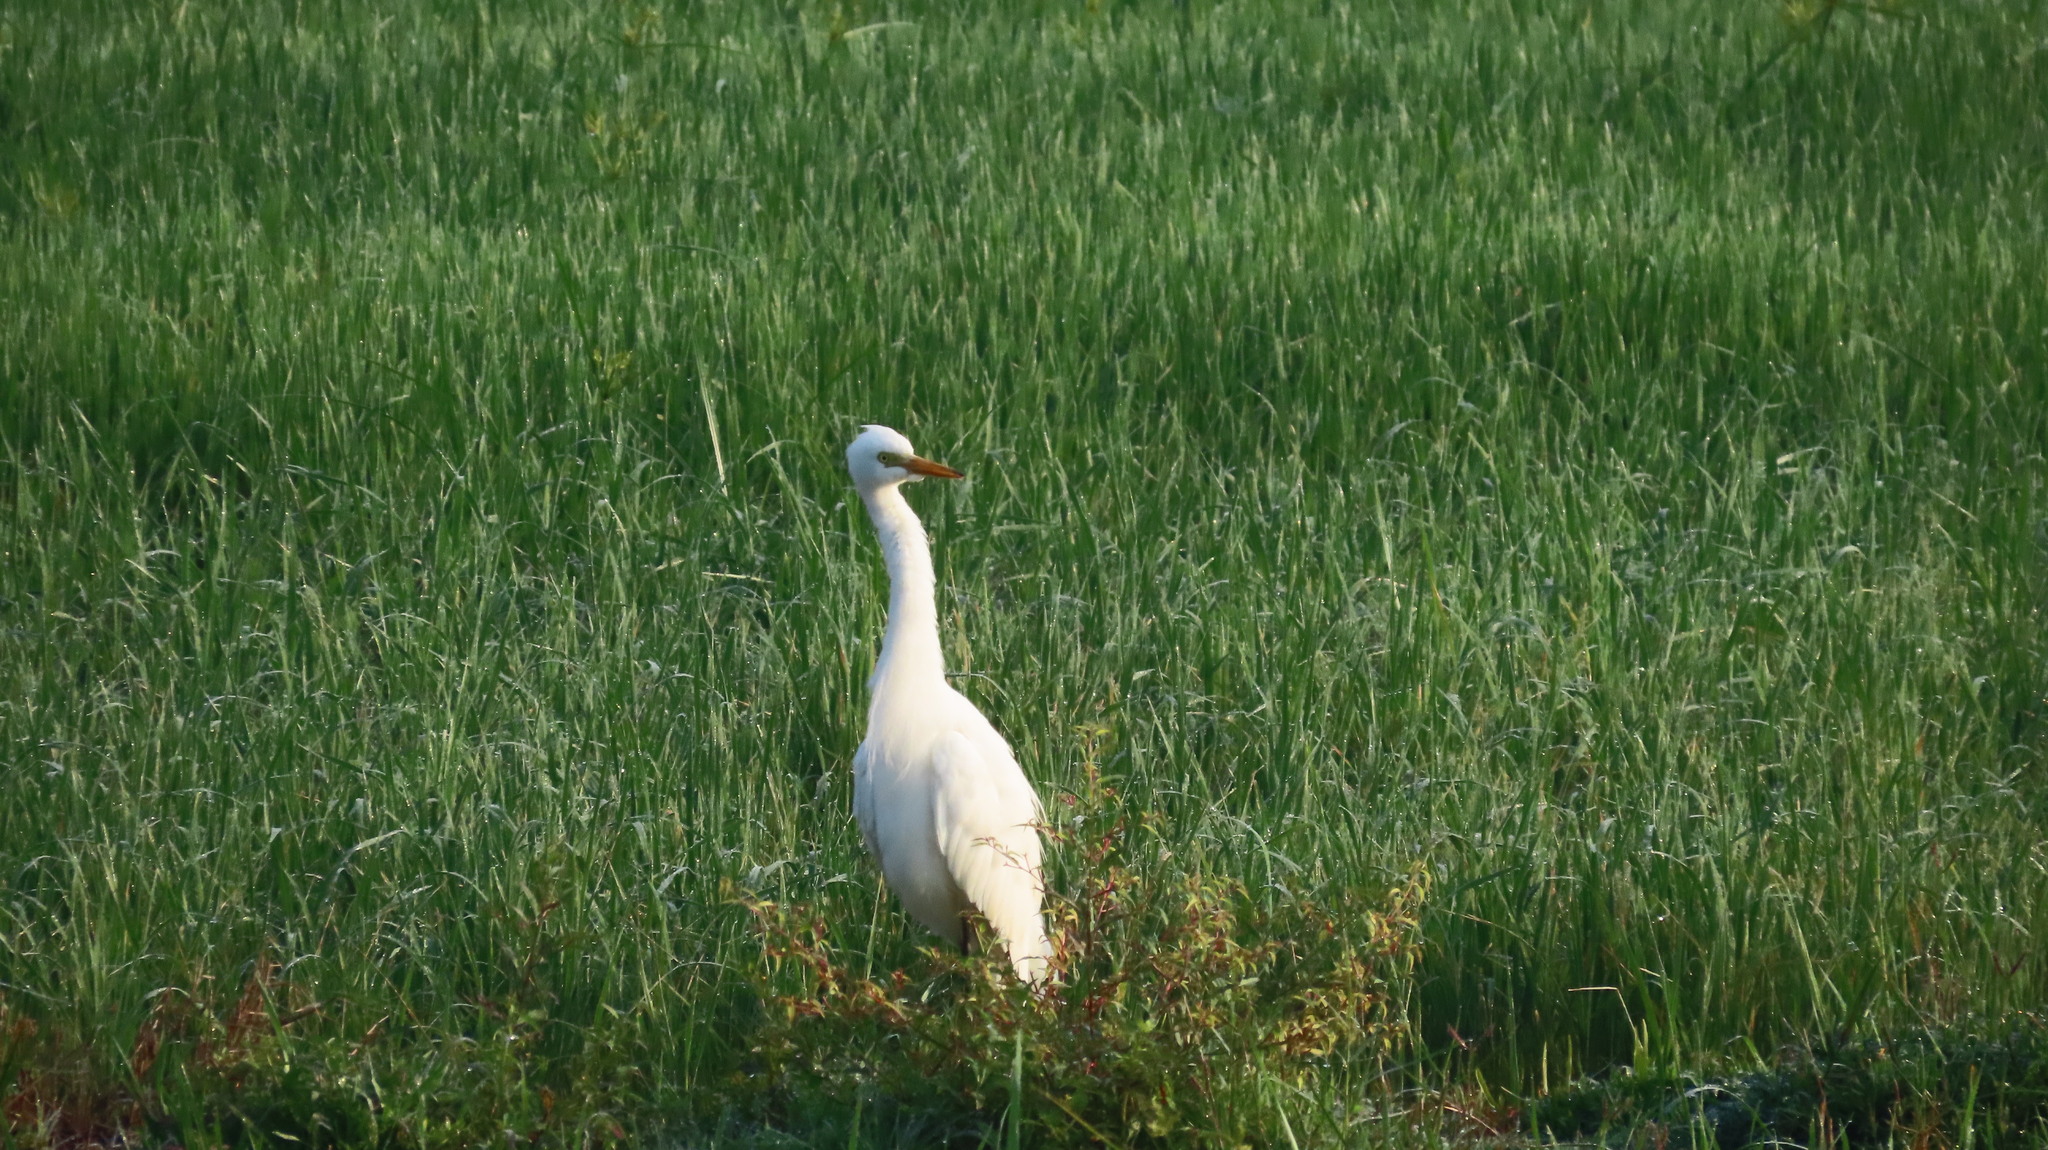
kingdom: Animalia
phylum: Chordata
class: Aves
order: Pelecaniformes
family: Ardeidae
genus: Egretta
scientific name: Egretta intermedia
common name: Intermediate egret
